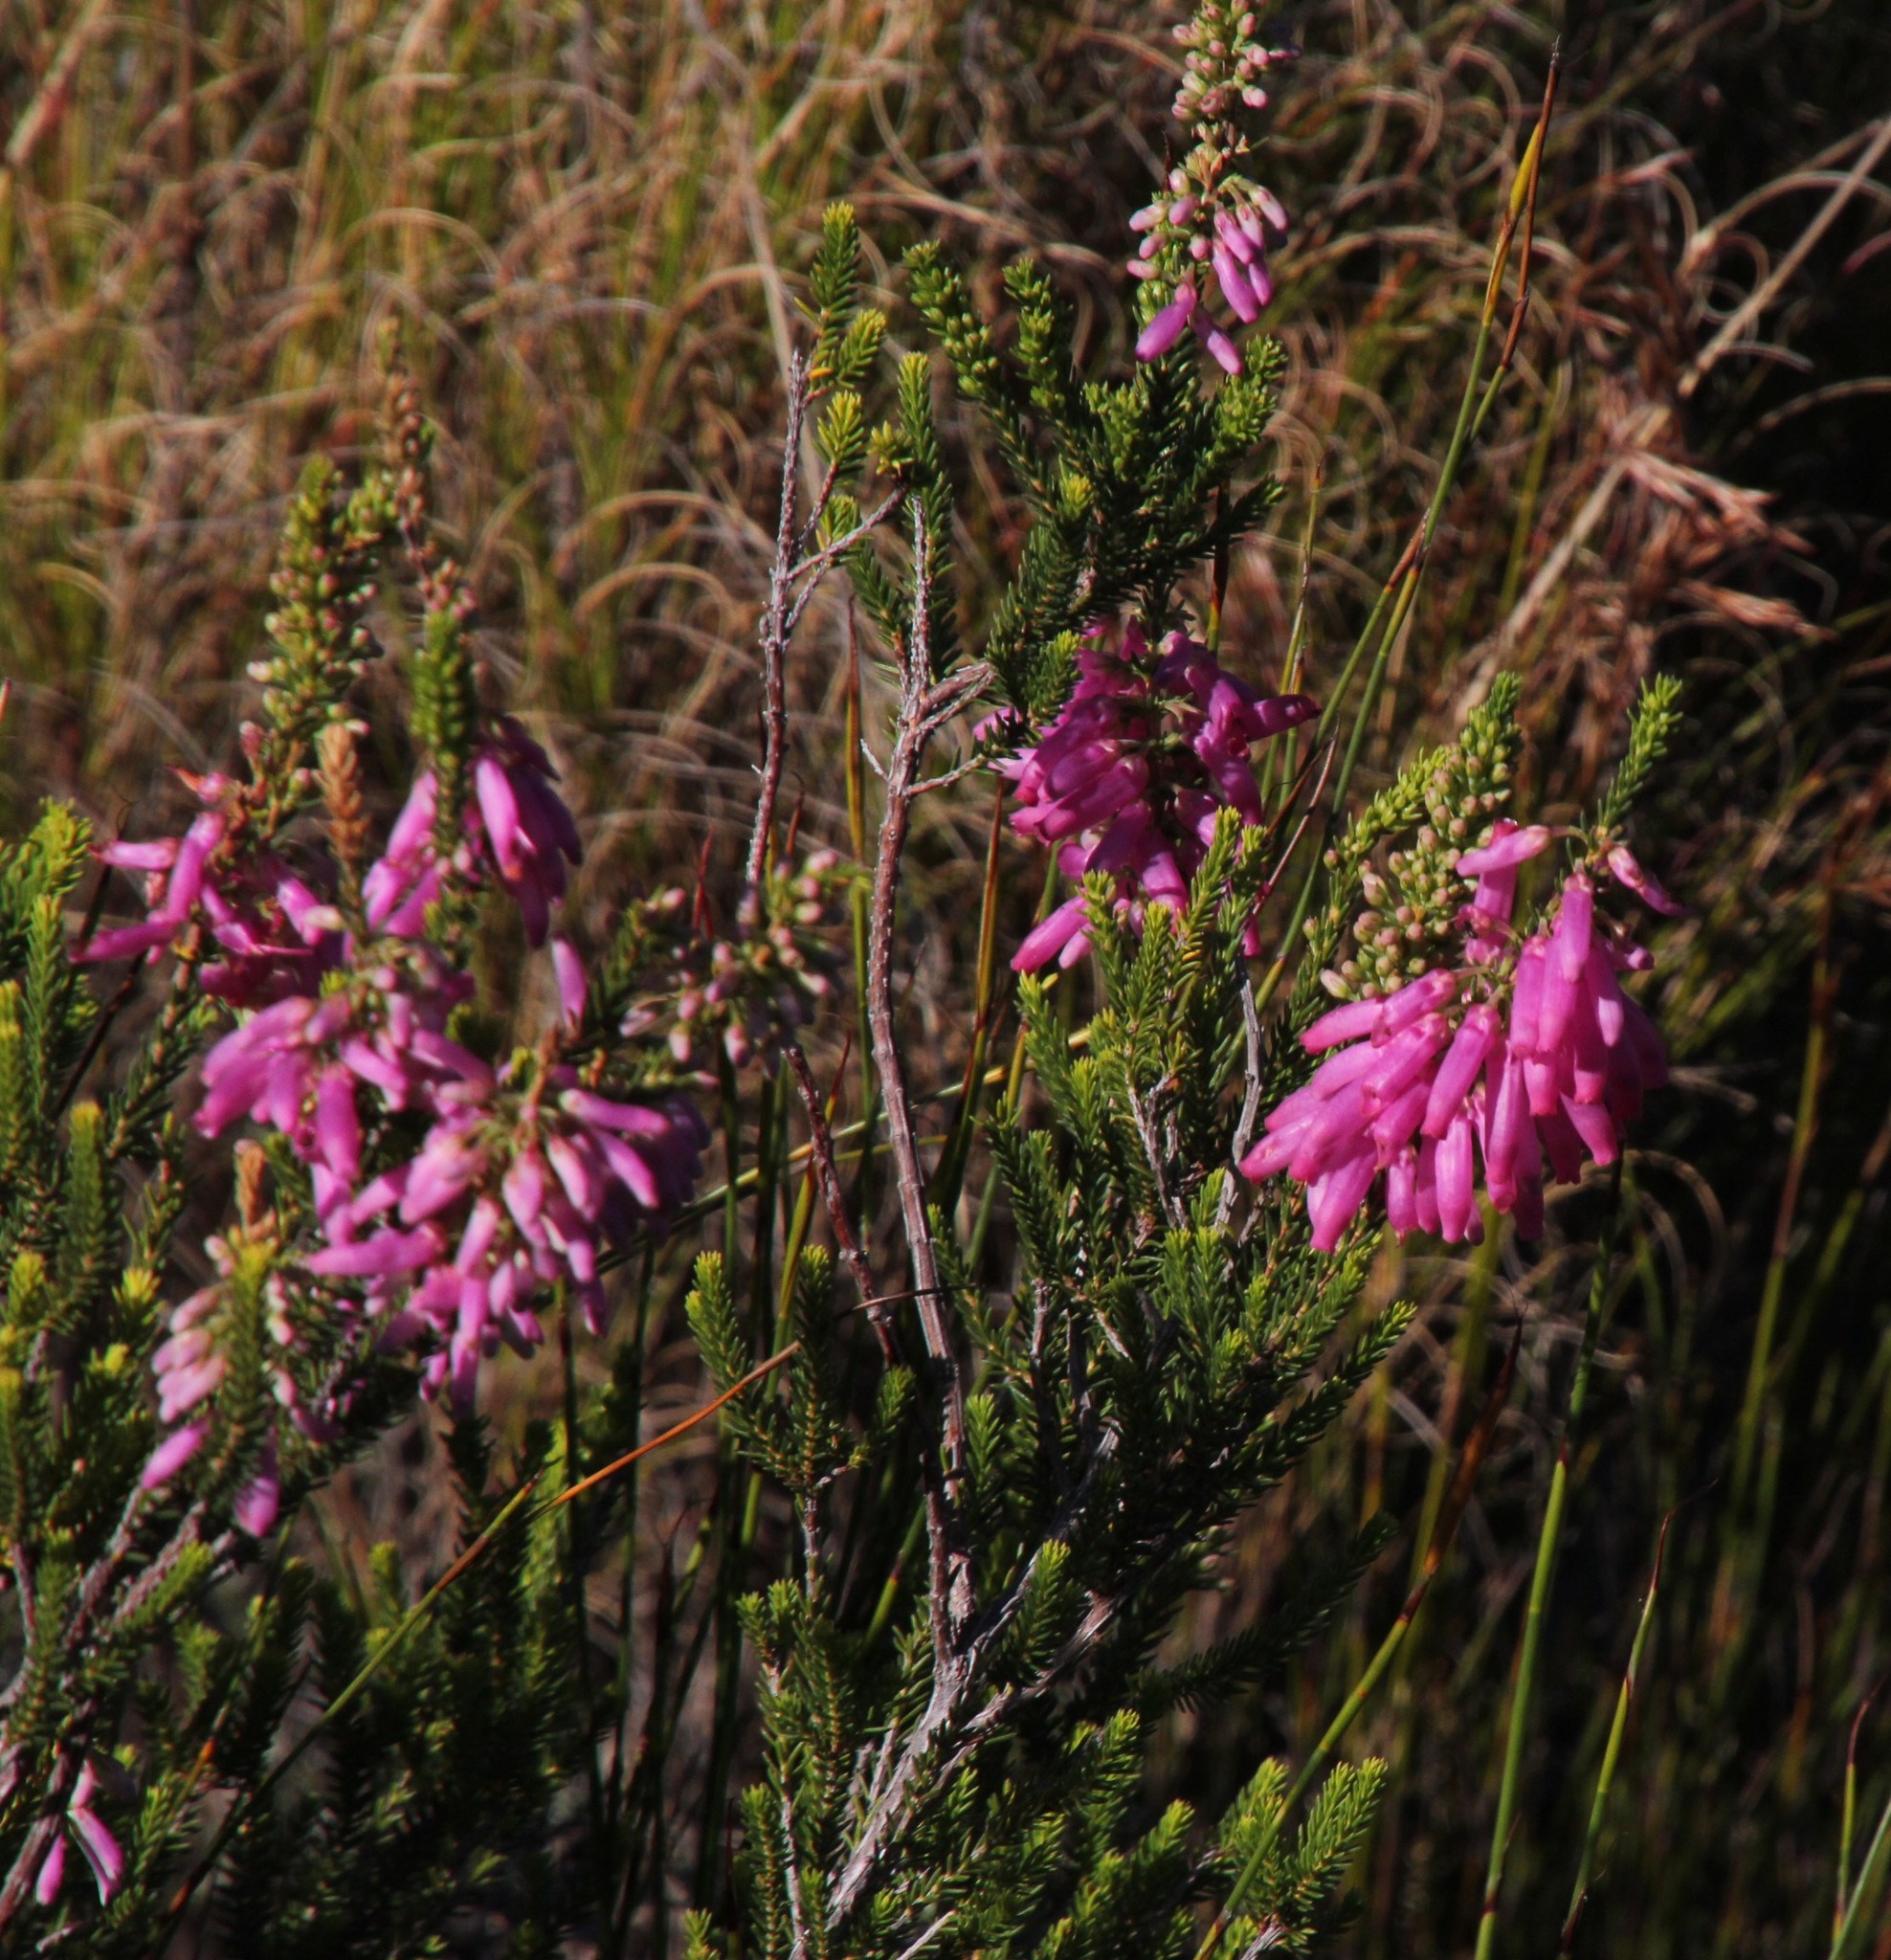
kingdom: Plantae
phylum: Tracheophyta
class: Magnoliopsida
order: Ericales
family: Ericaceae
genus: Erica
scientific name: Erica mammosa
